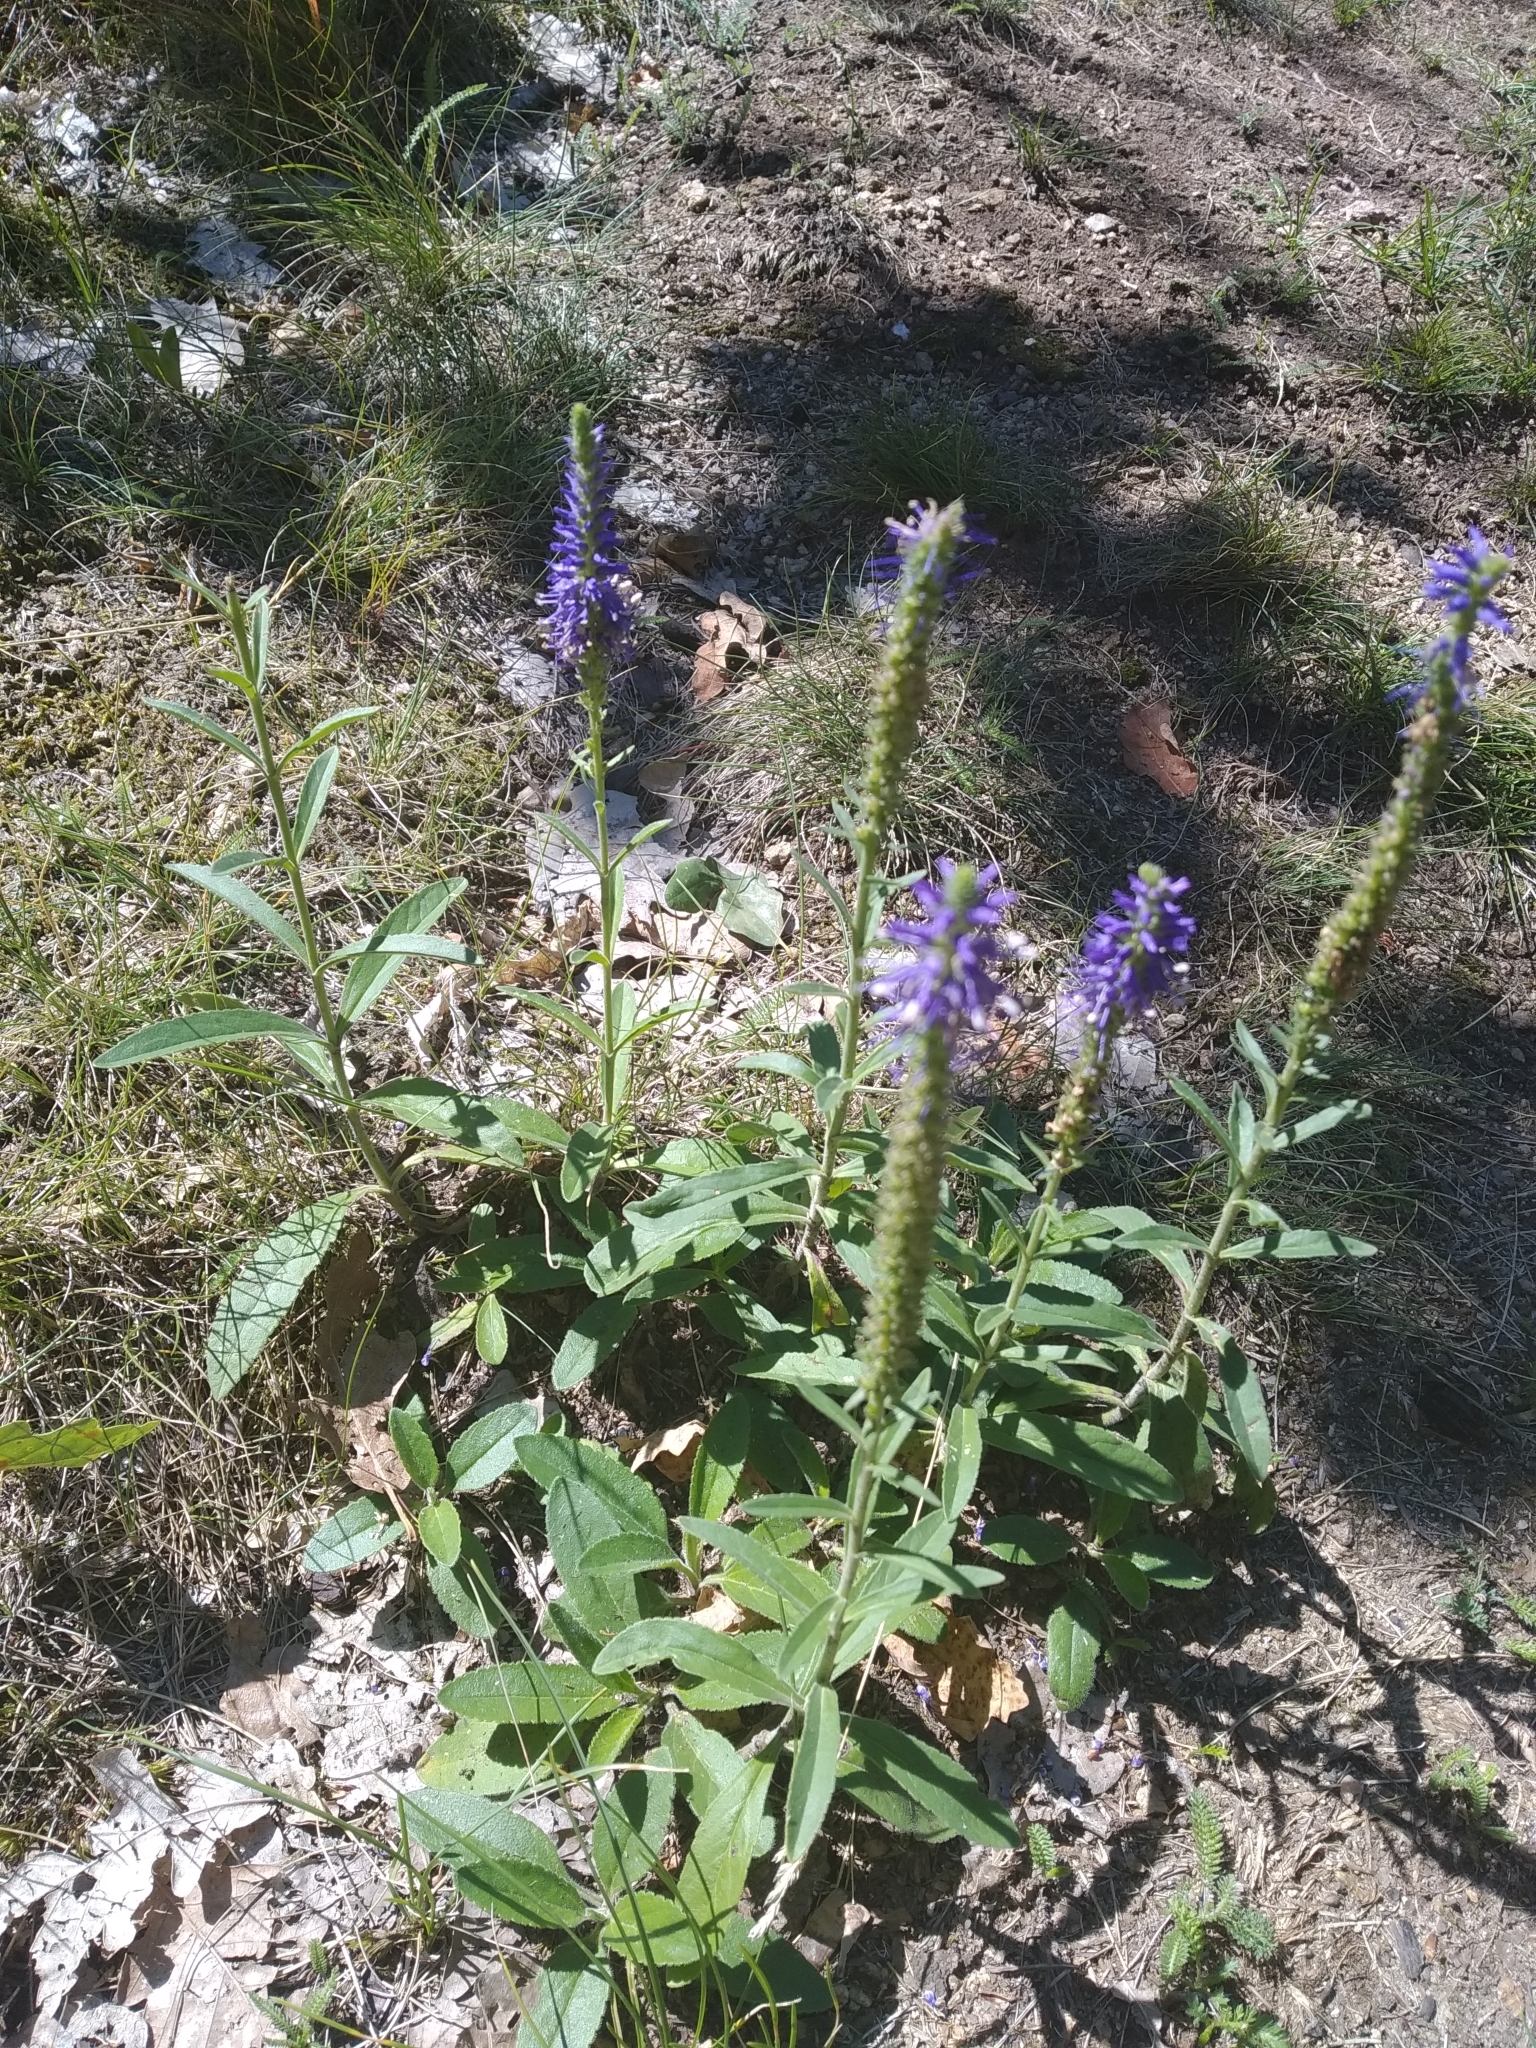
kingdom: Plantae
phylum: Tracheophyta
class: Magnoliopsida
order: Lamiales
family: Plantaginaceae
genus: Veronica
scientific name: Veronica spicata
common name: Spiked speedwell
